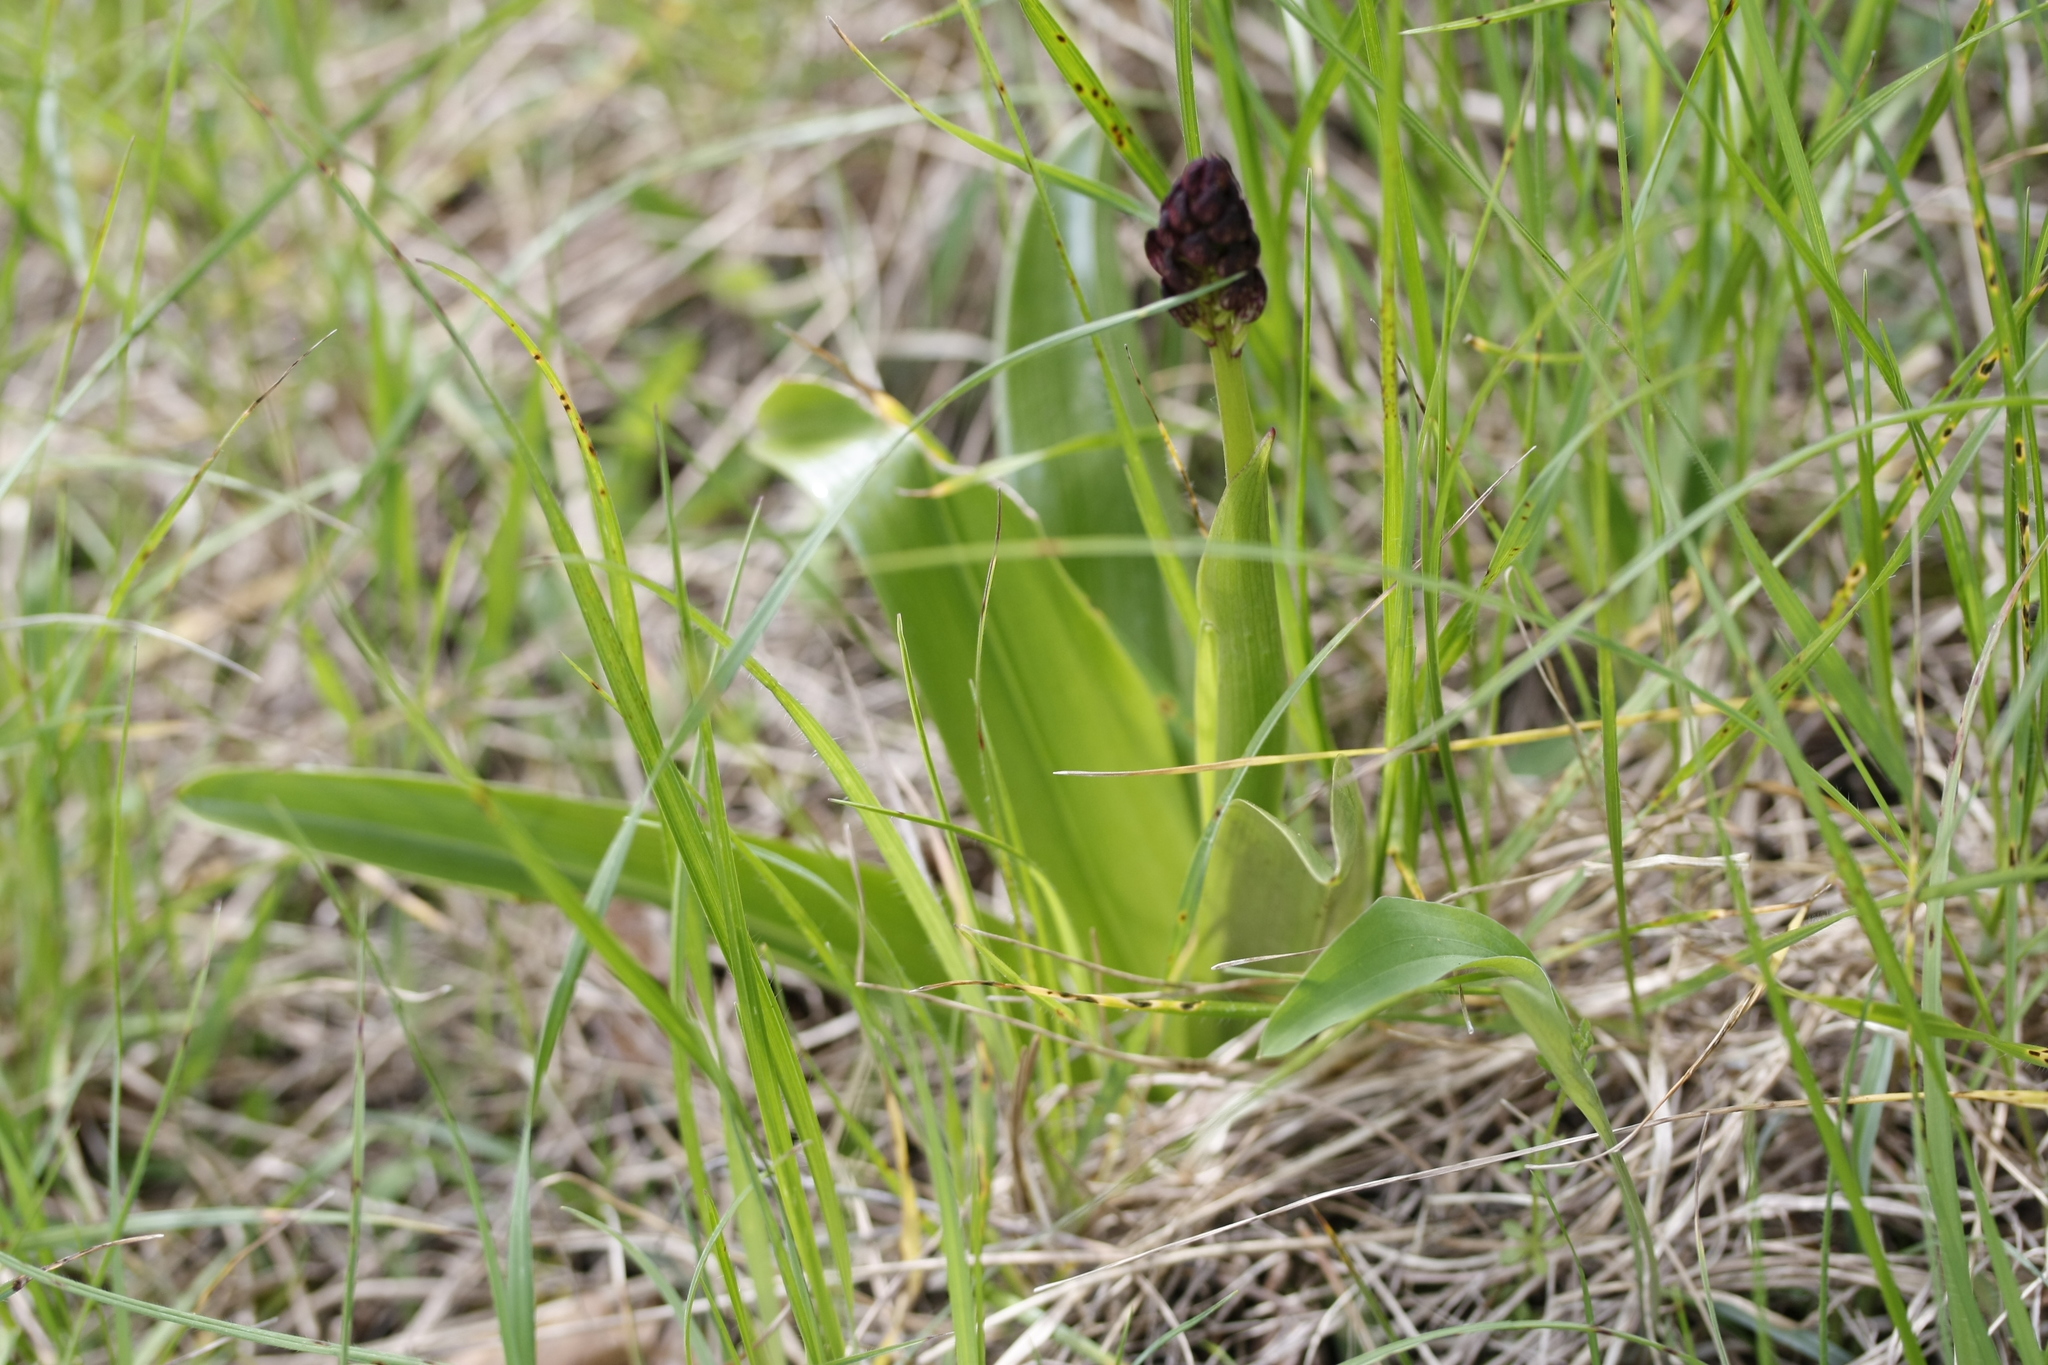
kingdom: Plantae
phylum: Tracheophyta
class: Liliopsida
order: Asparagales
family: Orchidaceae
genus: Orchis
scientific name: Orchis purpurea
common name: Lady orchid
